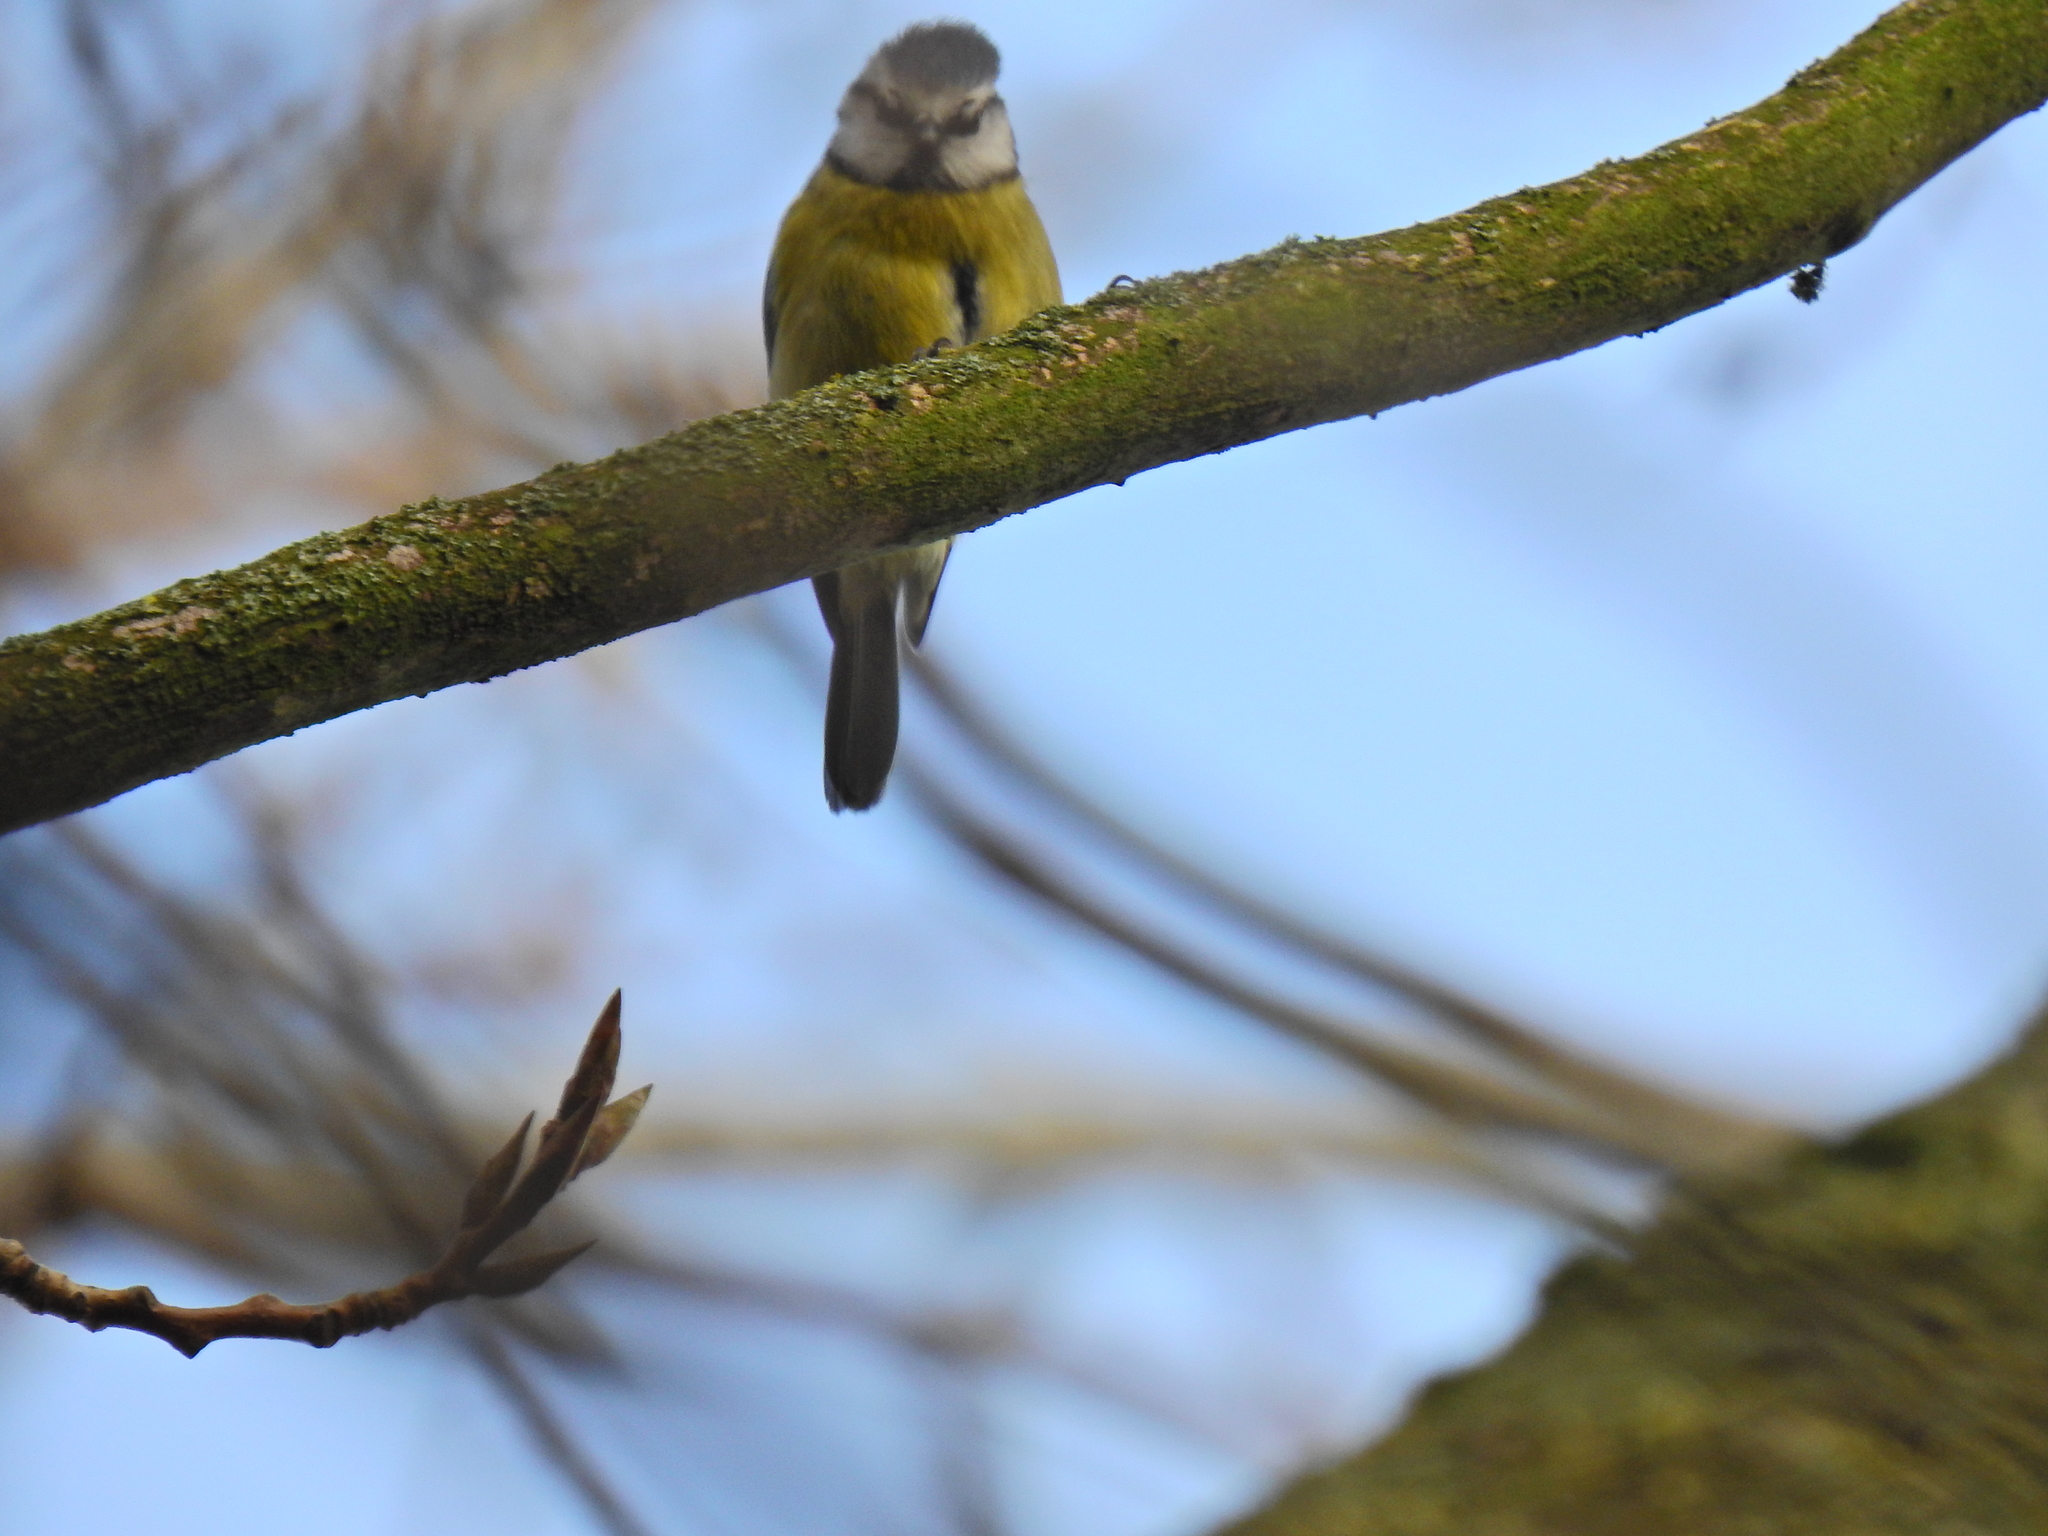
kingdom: Animalia
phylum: Chordata
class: Aves
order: Passeriformes
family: Paridae
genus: Cyanistes
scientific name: Cyanistes caeruleus
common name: Eurasian blue tit
